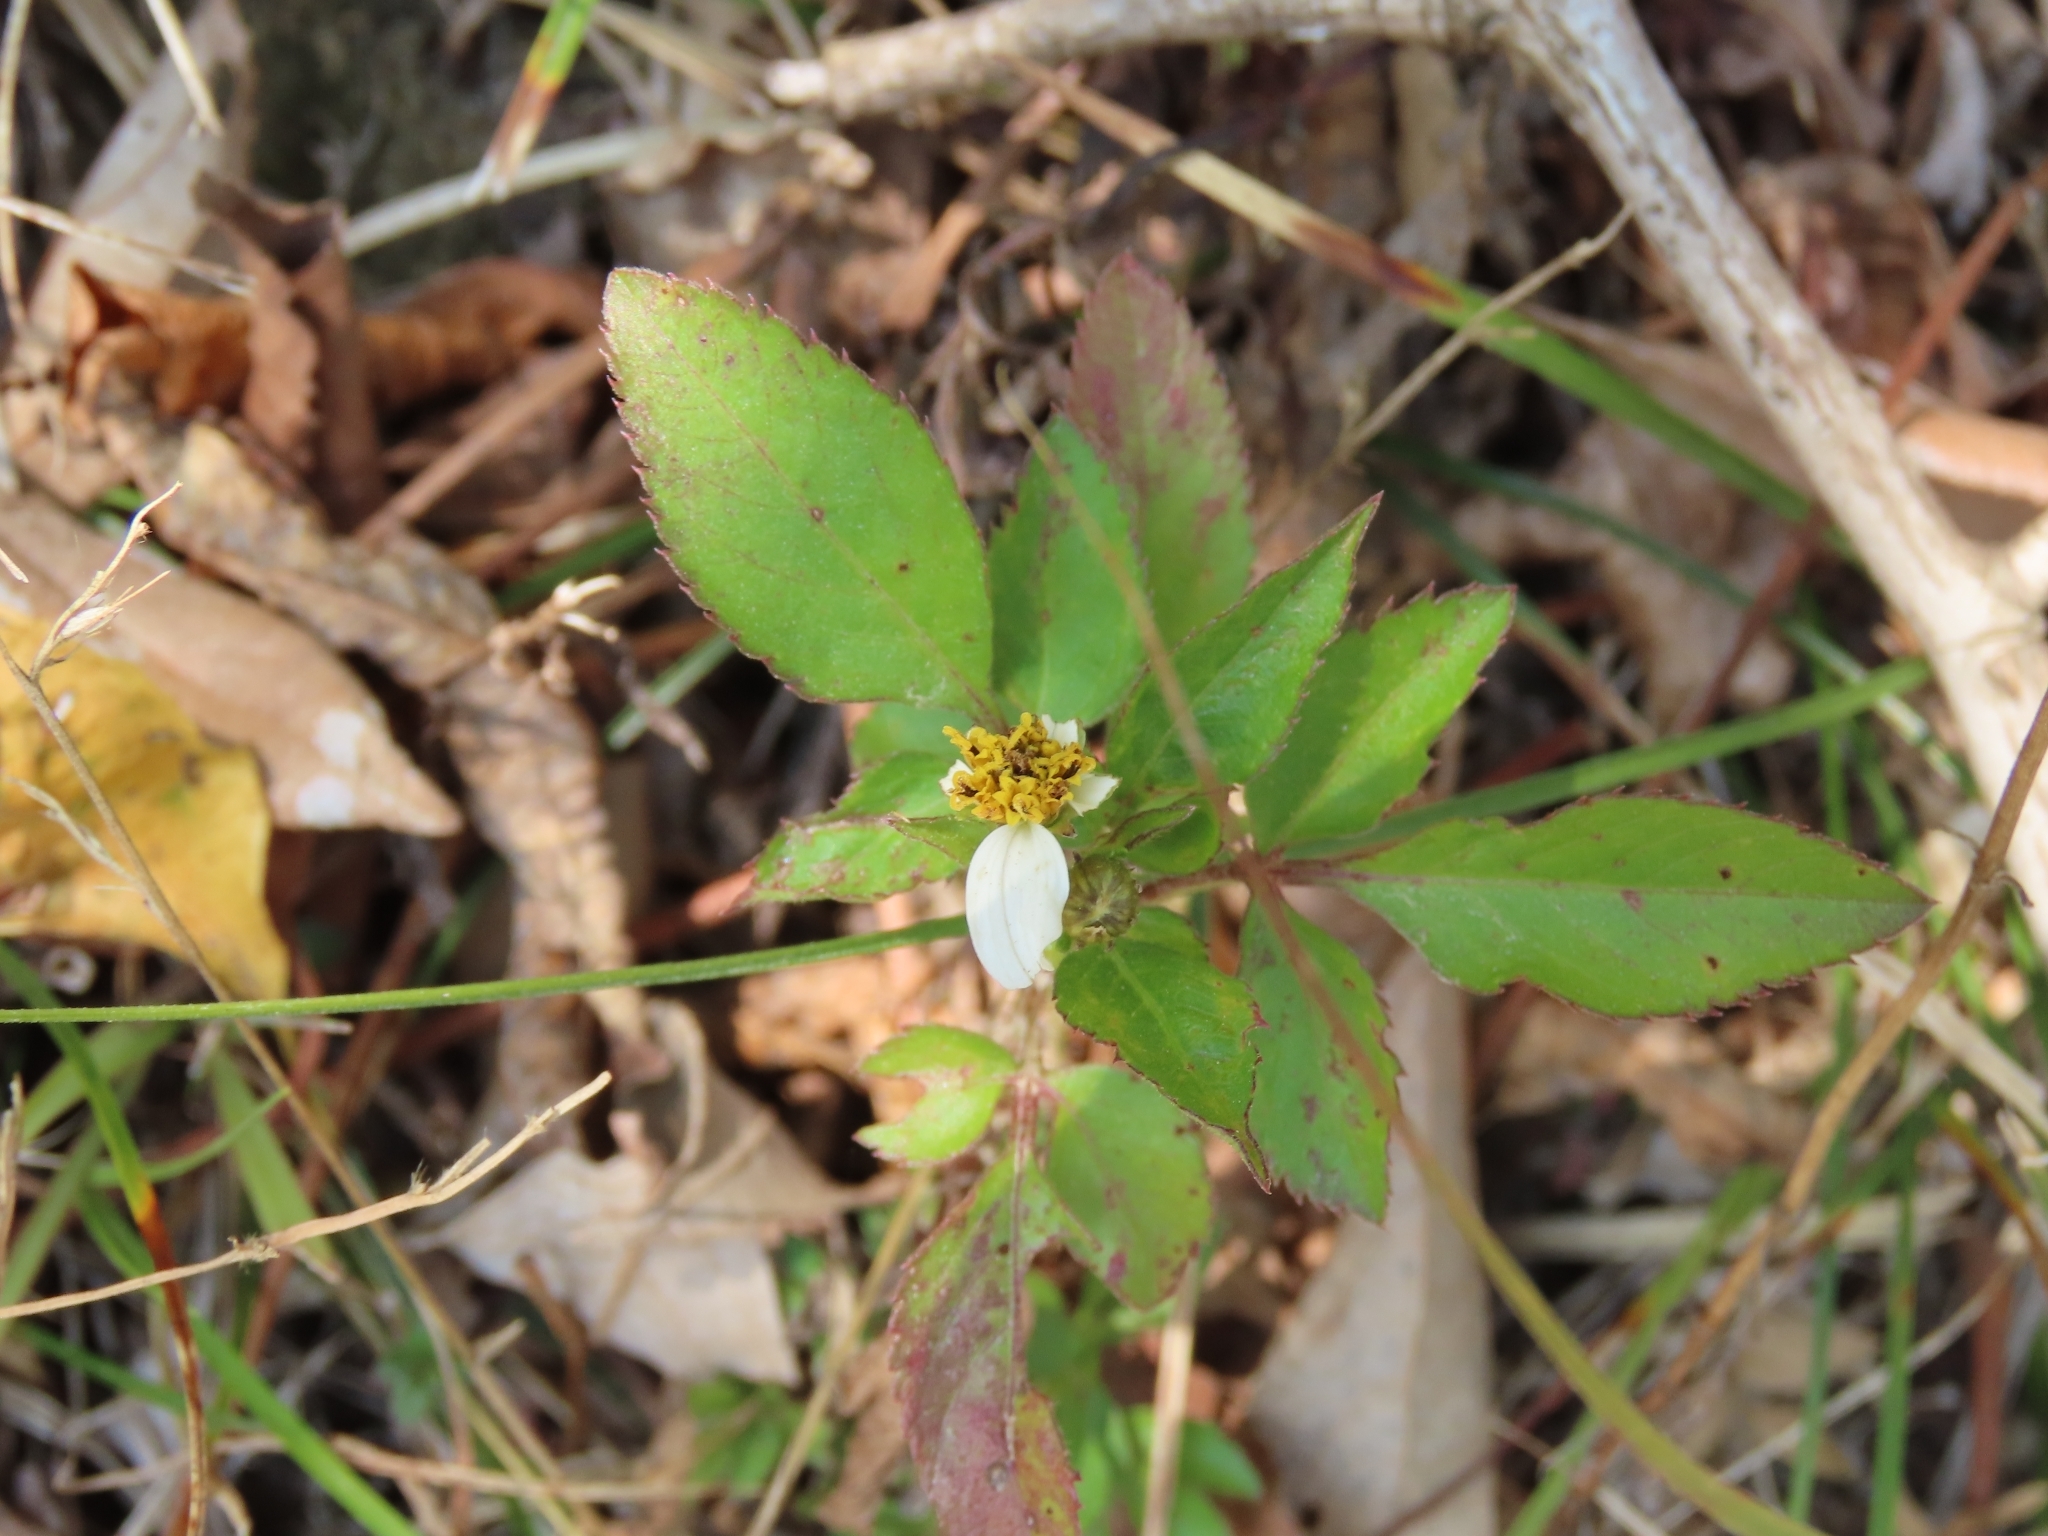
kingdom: Plantae
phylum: Tracheophyta
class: Magnoliopsida
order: Asterales
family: Asteraceae
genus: Bidens
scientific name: Bidens alba
